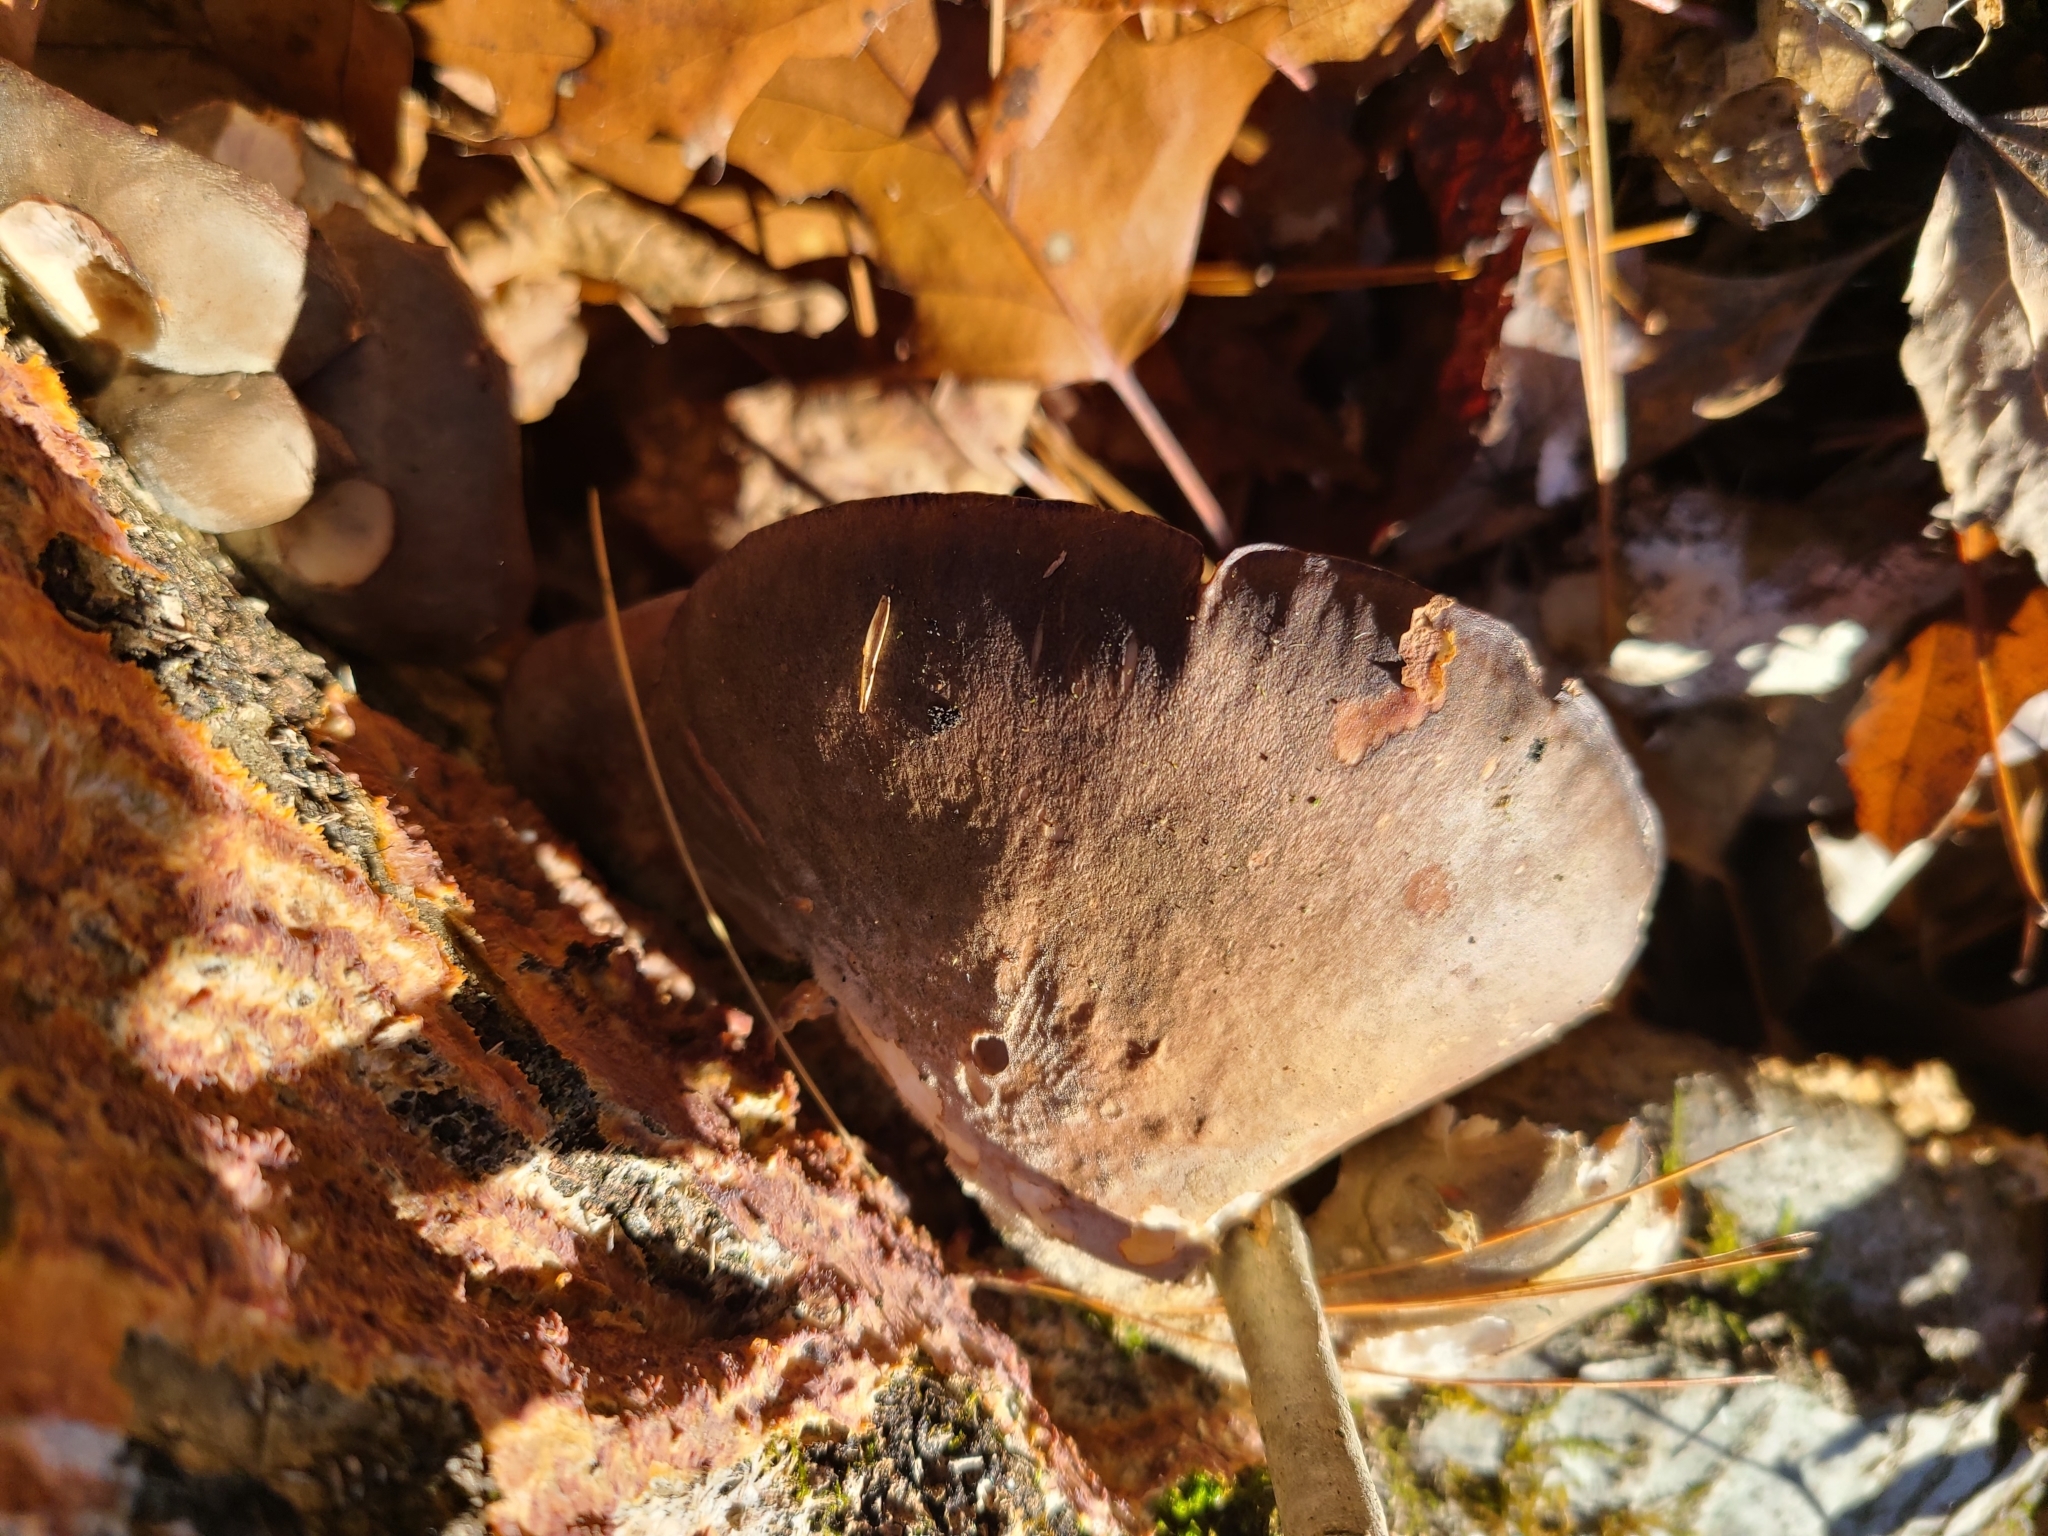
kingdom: Fungi
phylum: Basidiomycota
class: Agaricomycetes
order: Agaricales
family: Sarcomyxaceae
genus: Sarcomyxa
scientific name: Sarcomyxa serotina
